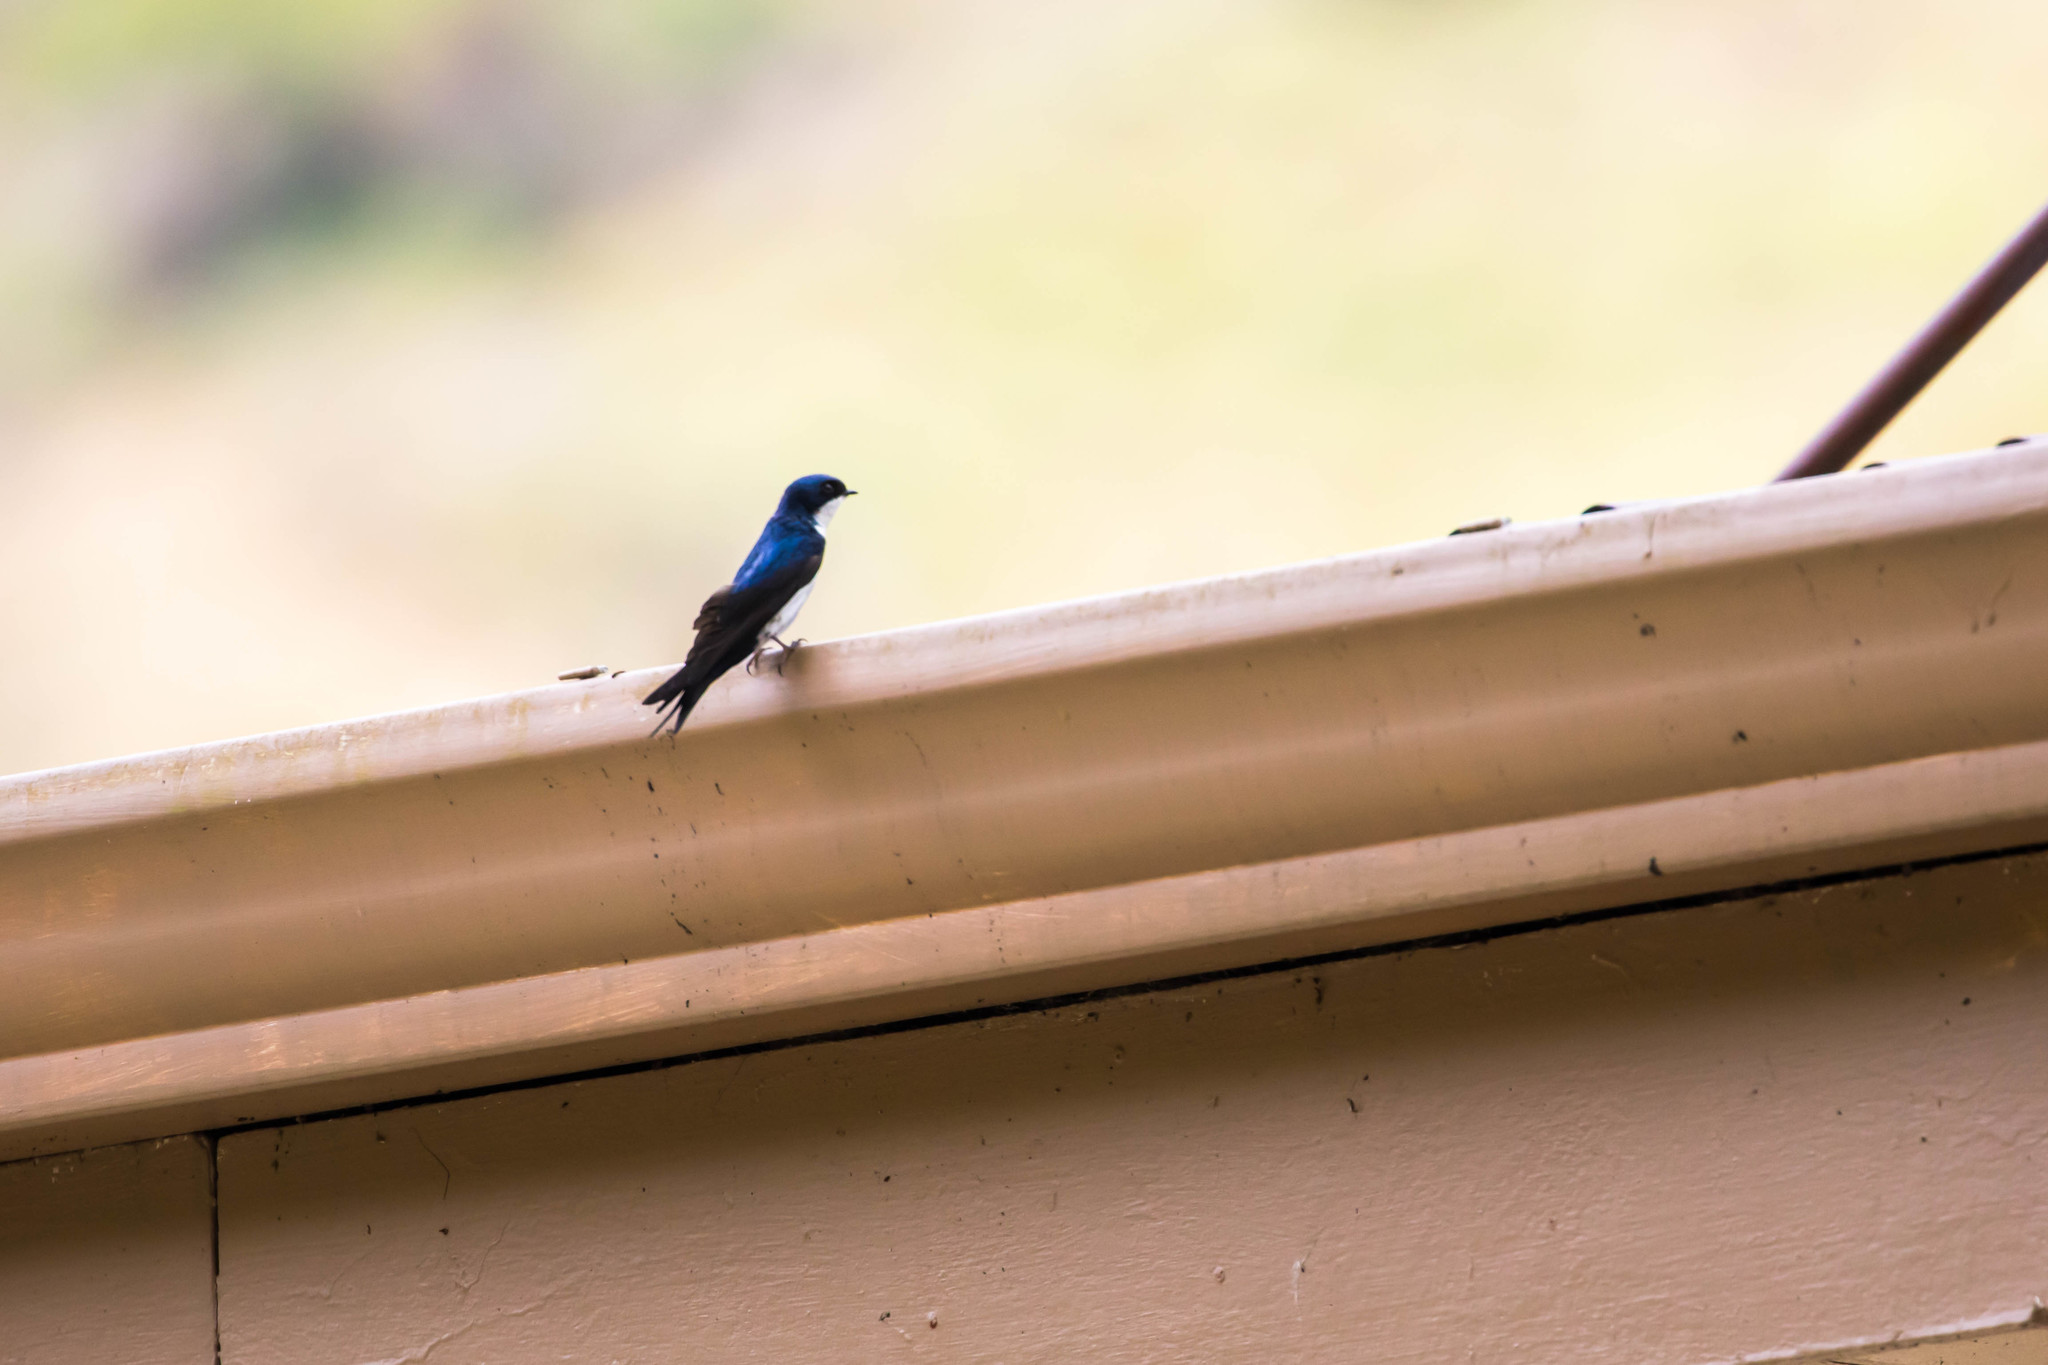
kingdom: Animalia
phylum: Chordata
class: Aves
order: Passeriformes
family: Hirundinidae
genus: Notiochelidon
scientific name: Notiochelidon cyanoleuca
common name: Blue-and-white swallow
